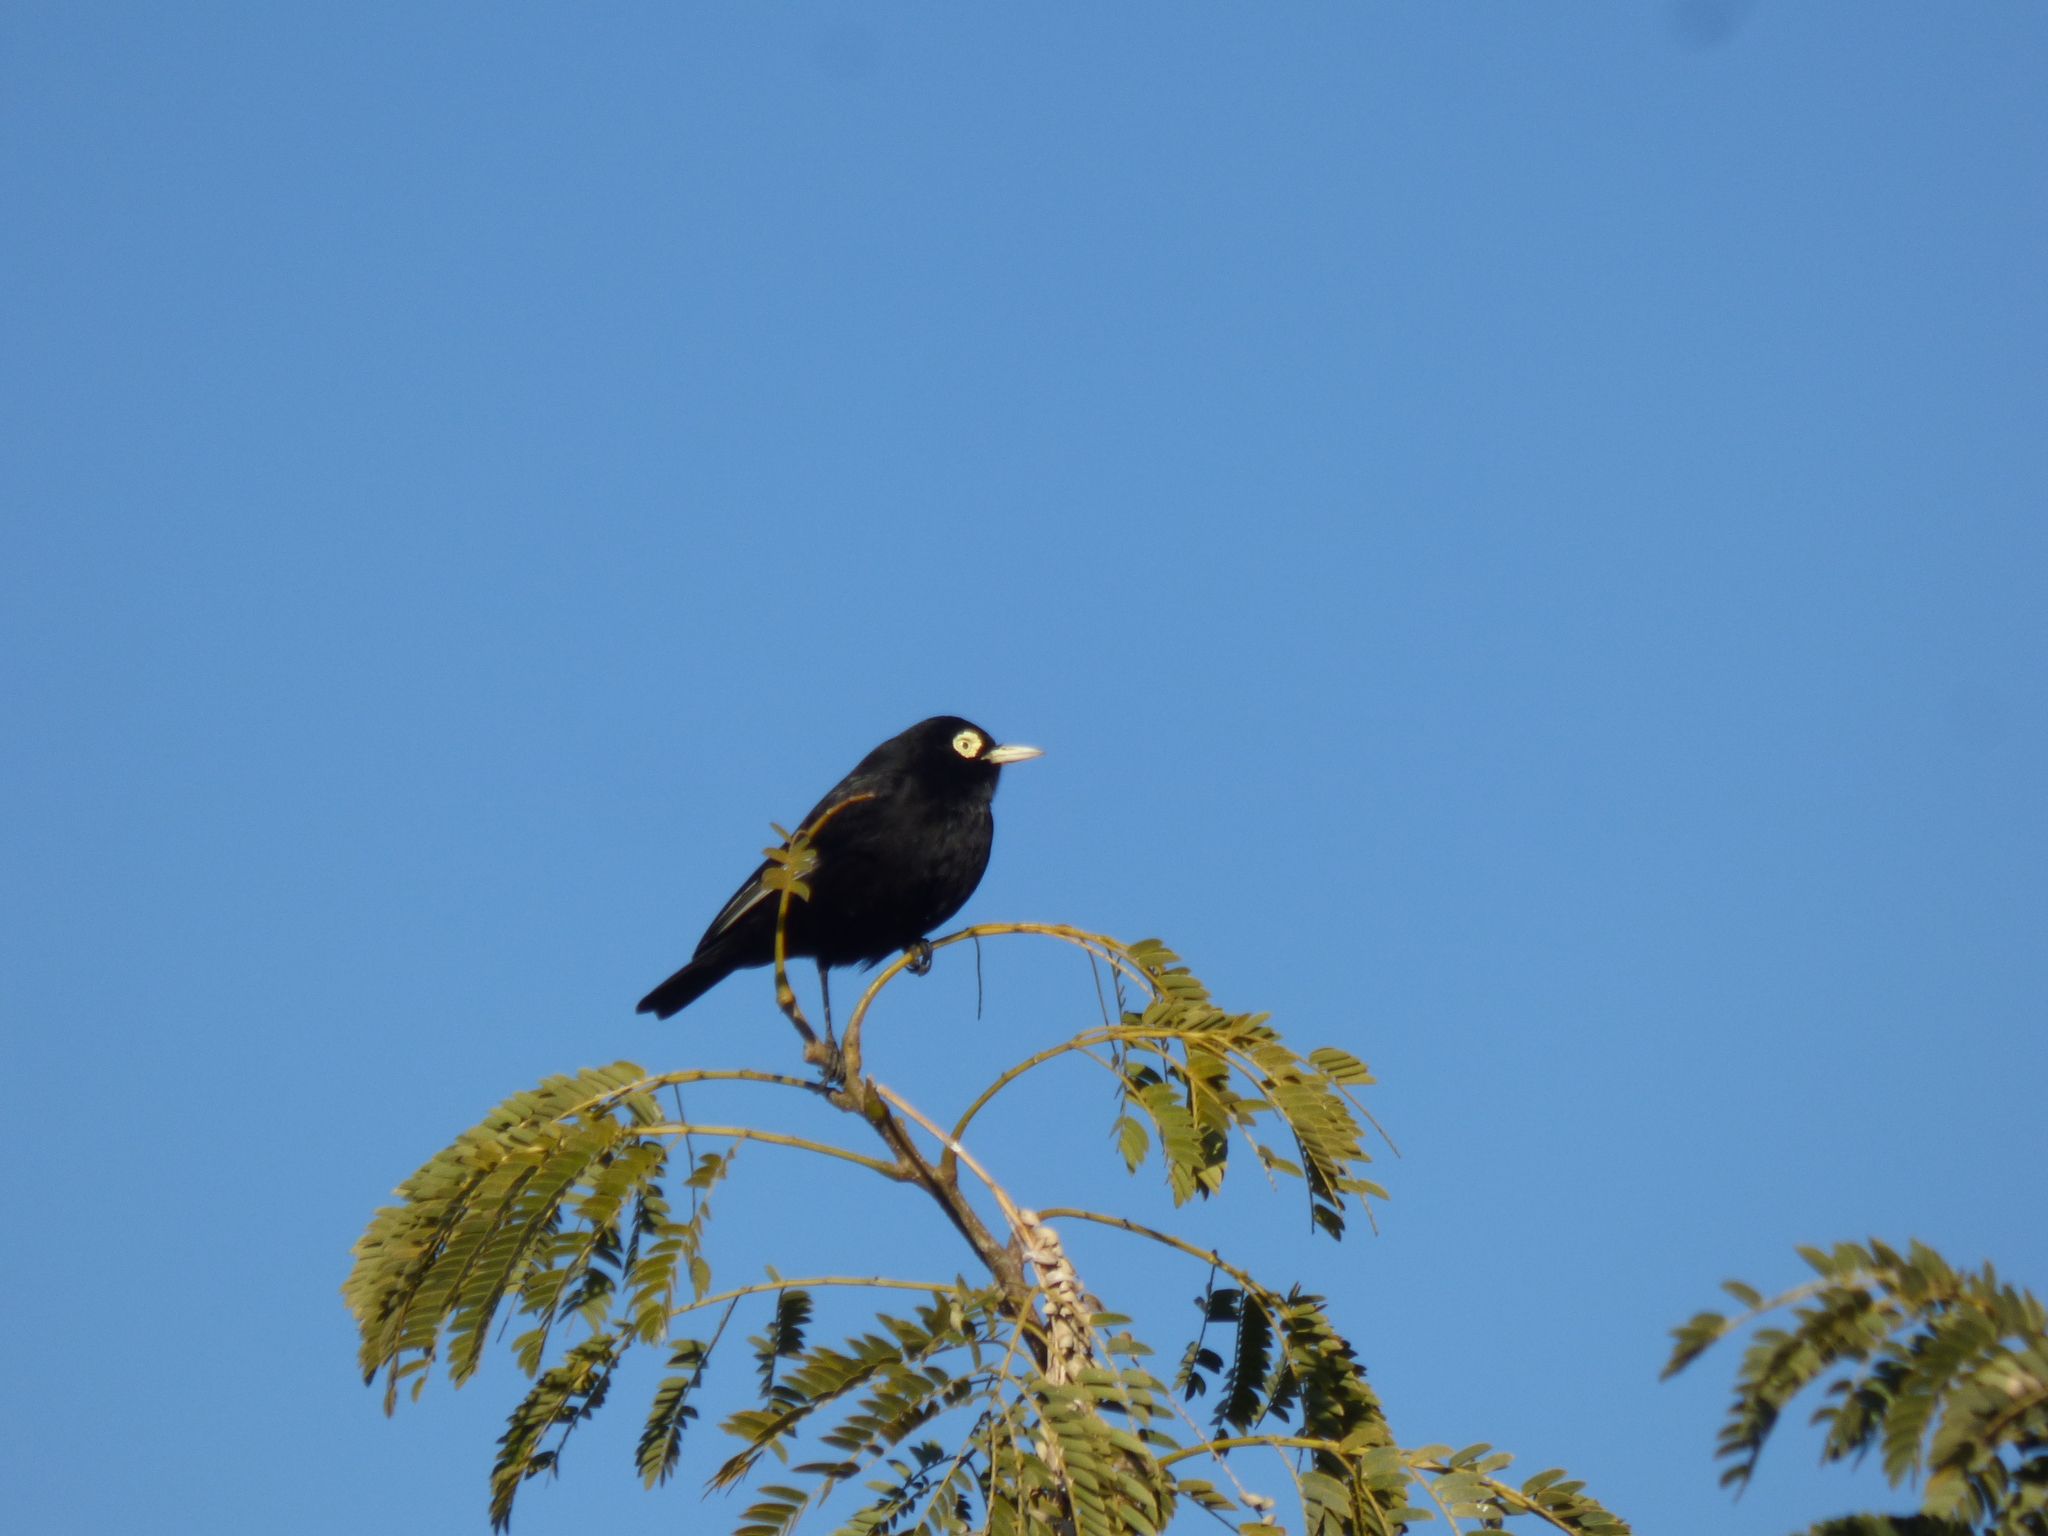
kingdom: Animalia
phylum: Chordata
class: Aves
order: Passeriformes
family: Tyrannidae
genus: Hymenops
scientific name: Hymenops perspicillatus
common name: Spectacled tyrant
